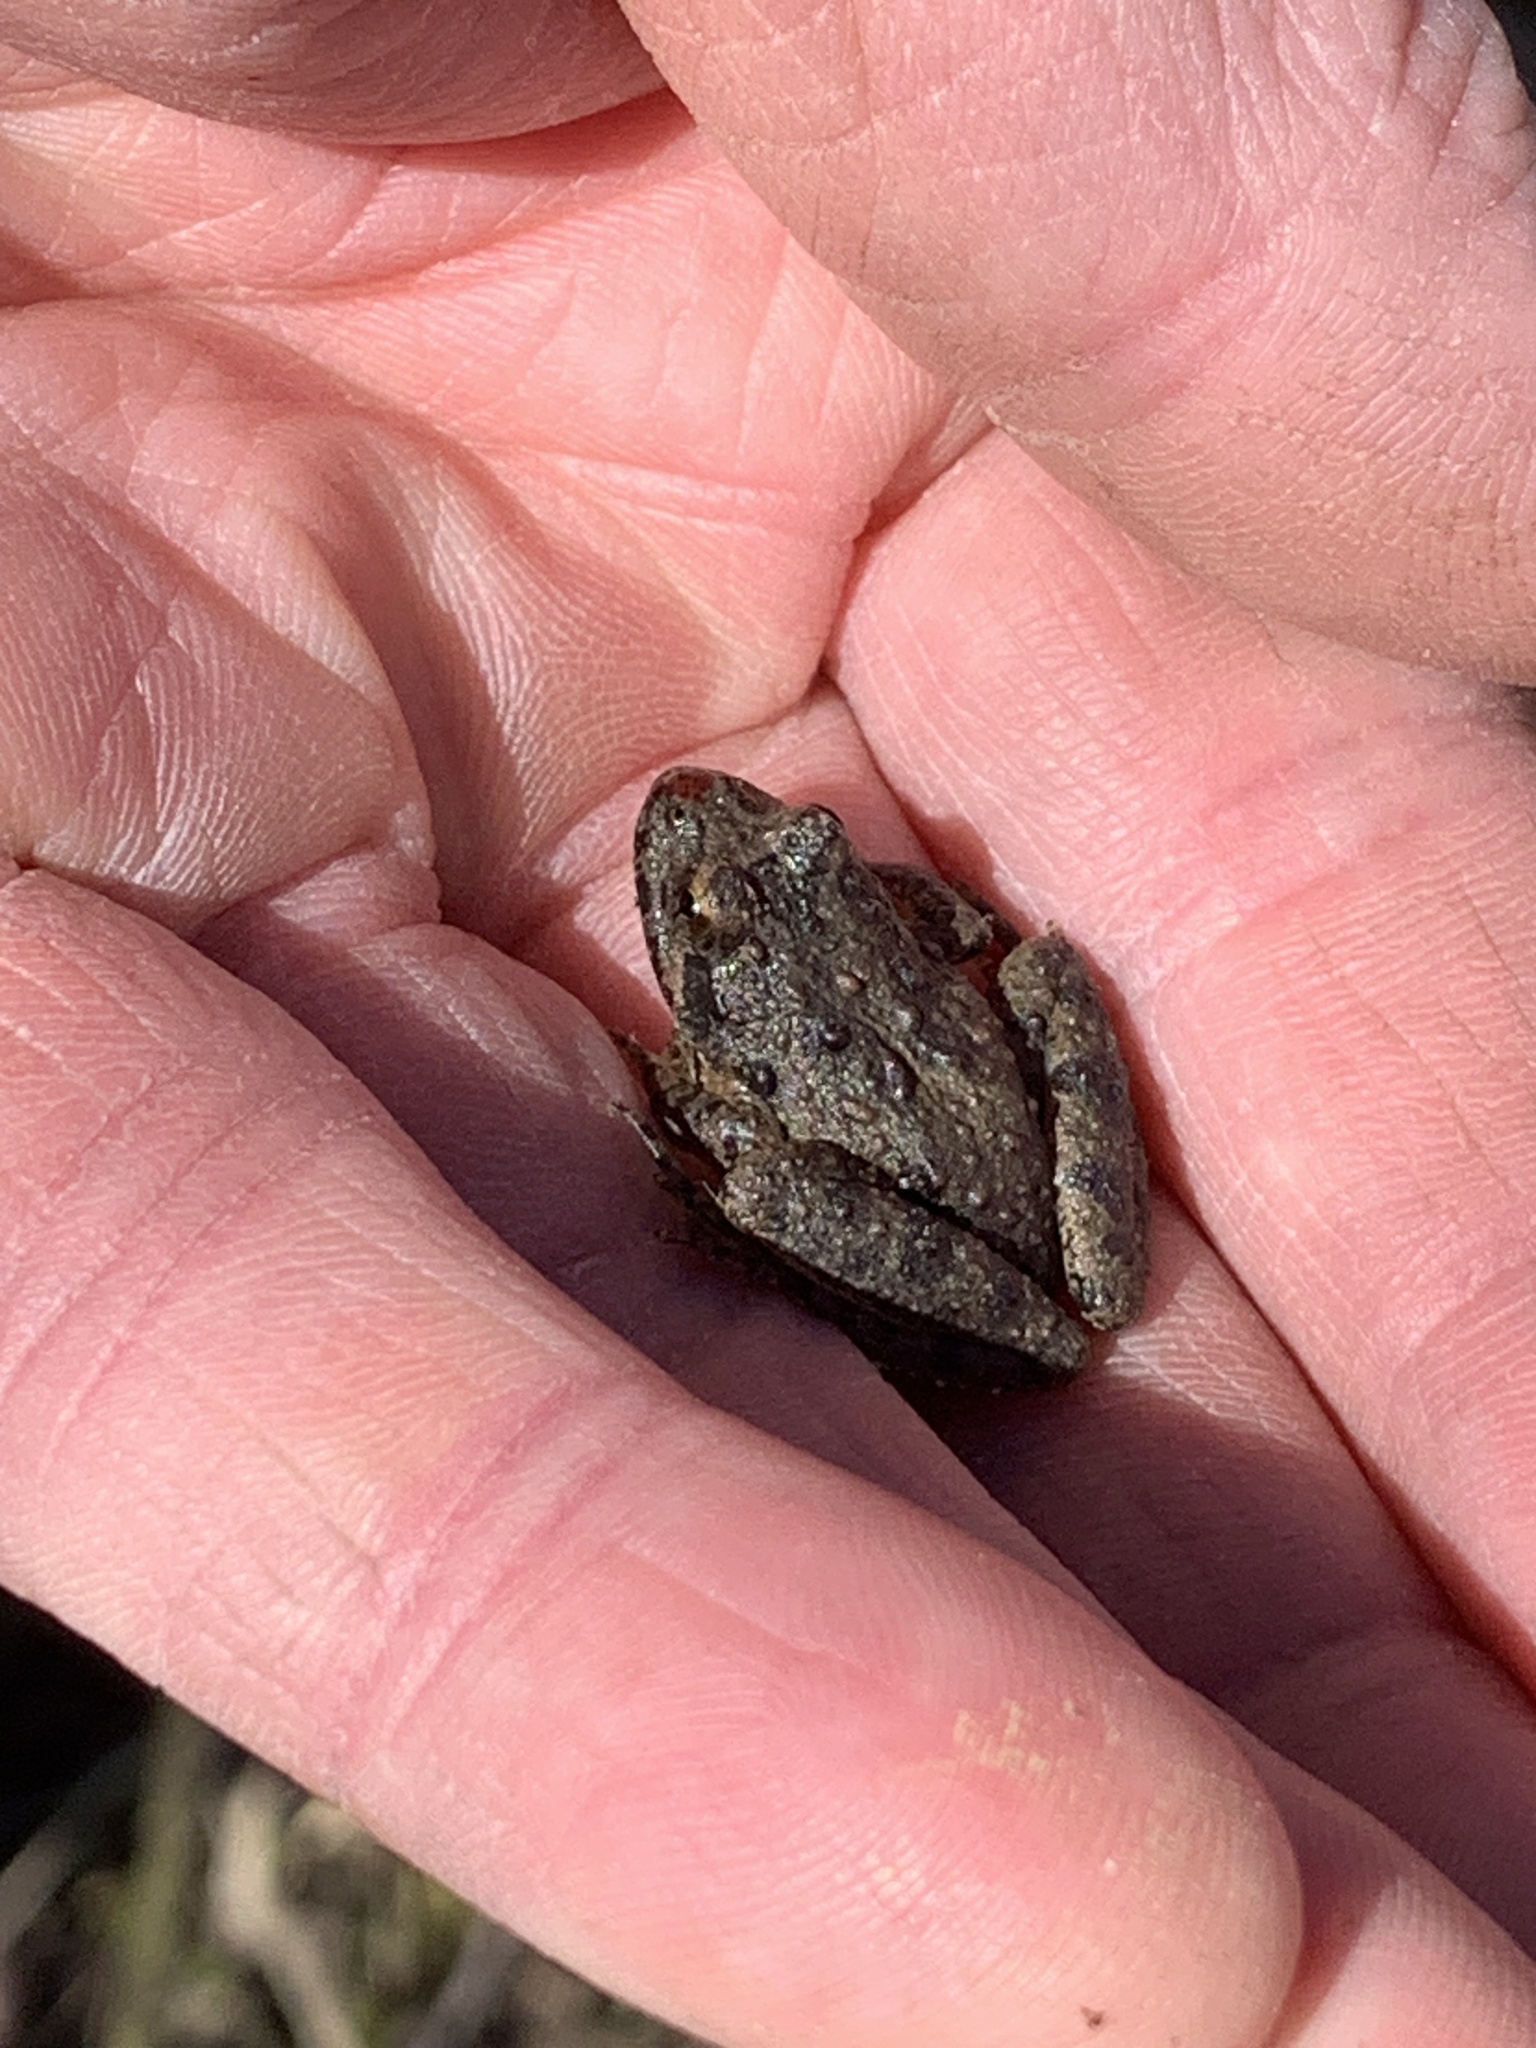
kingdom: Animalia
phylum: Chordata
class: Amphibia
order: Anura
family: Hylidae
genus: Acris
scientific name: Acris blanchardi
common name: Blanchard's cricket frog
